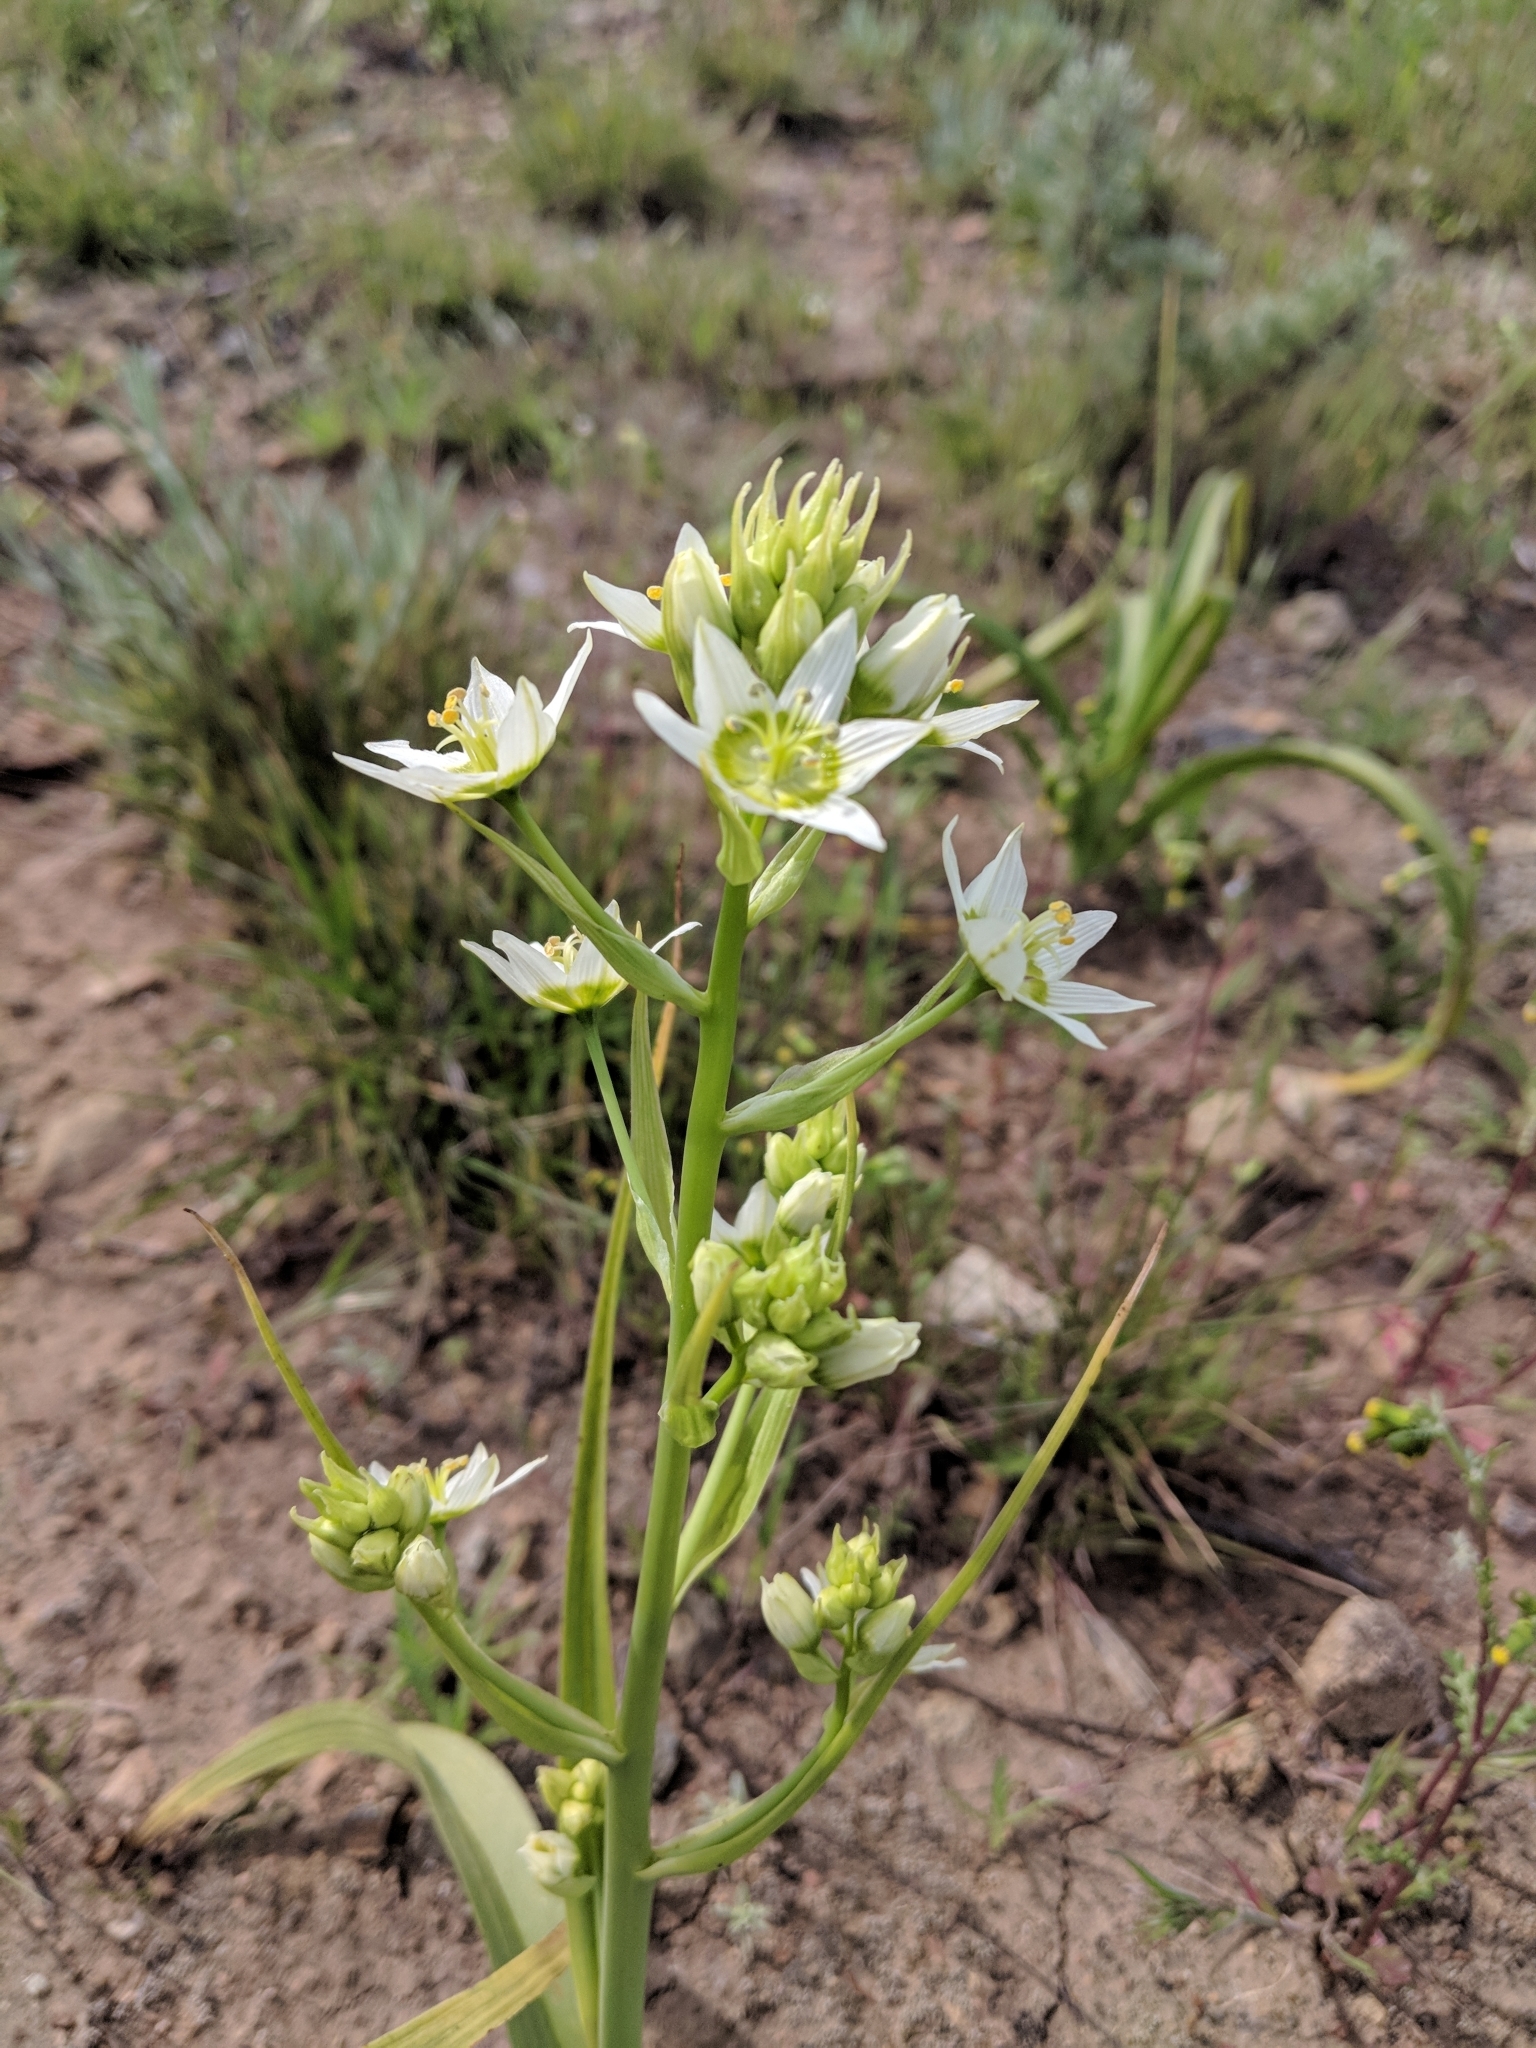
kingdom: Plantae
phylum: Tracheophyta
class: Liliopsida
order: Liliales
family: Melanthiaceae
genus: Toxicoscordion
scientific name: Toxicoscordion fremontii
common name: Fremont's death camas
